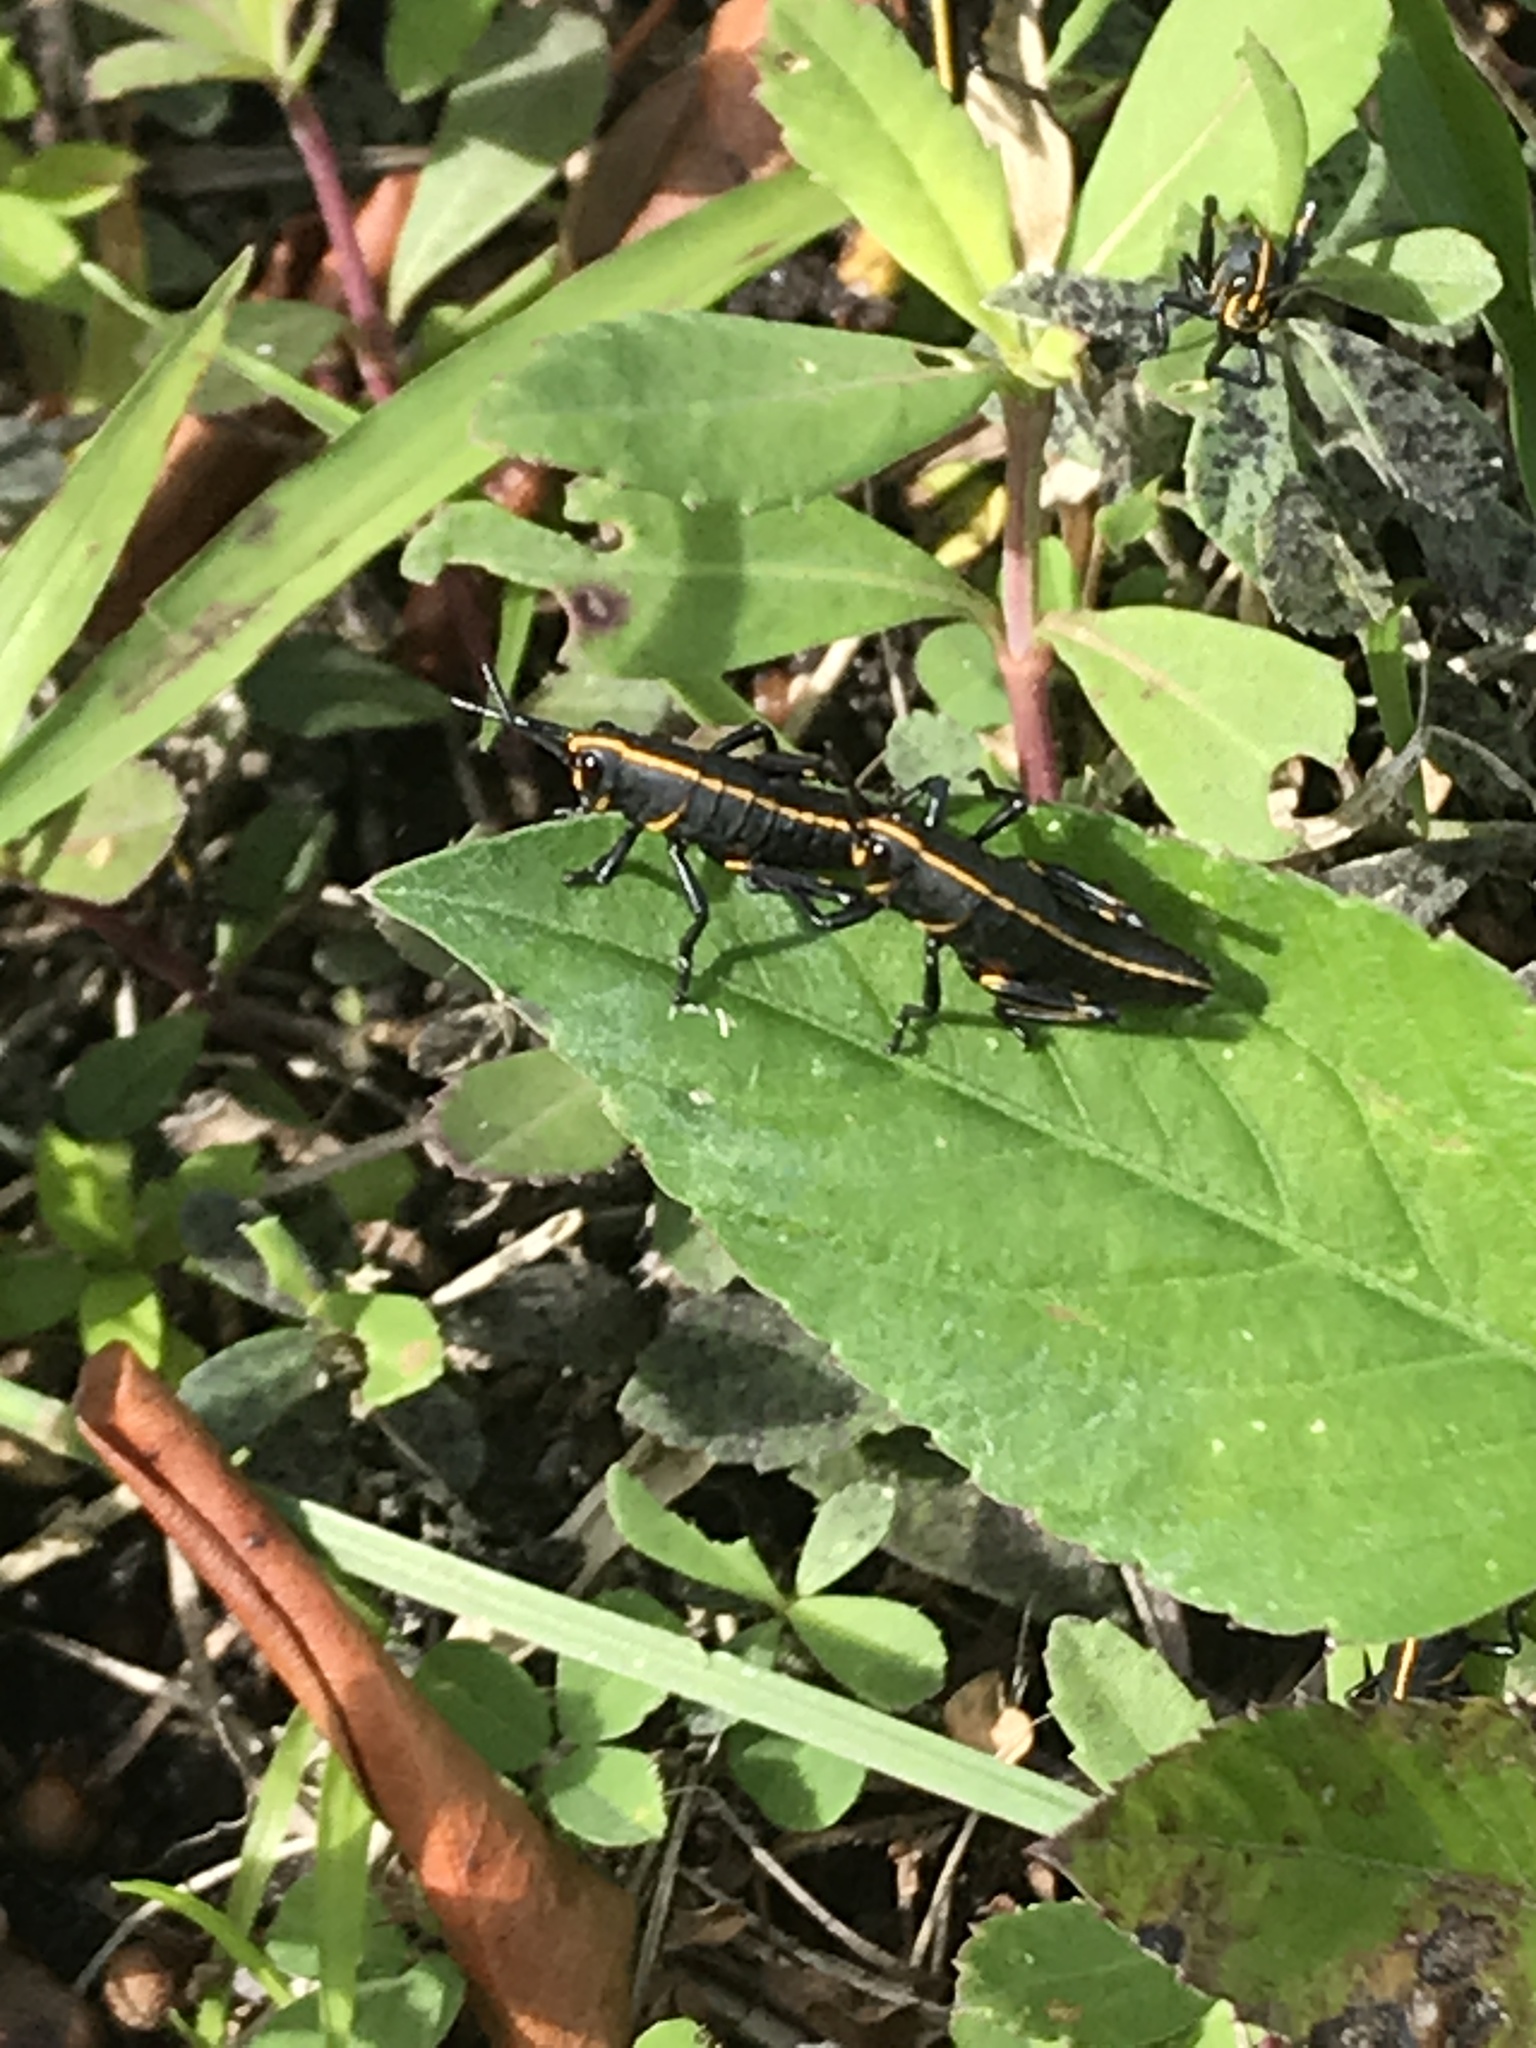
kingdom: Animalia
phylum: Arthropoda
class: Insecta
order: Orthoptera
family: Romaleidae
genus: Romalea
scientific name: Romalea microptera
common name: Eastern lubber grasshopper
